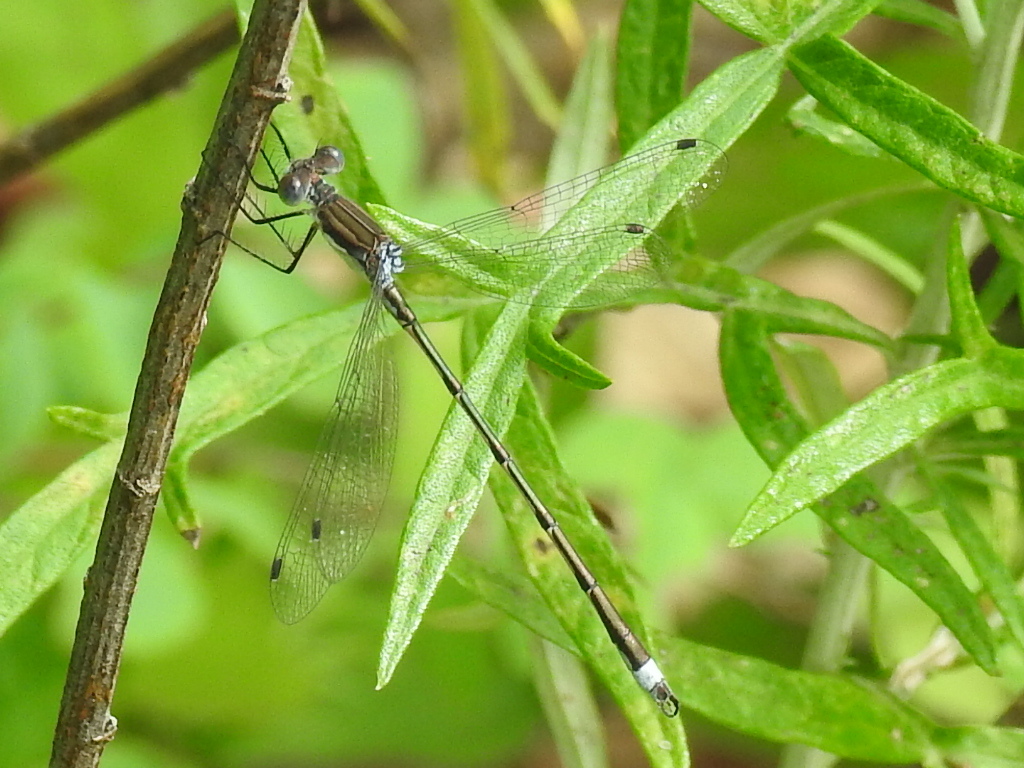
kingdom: Animalia
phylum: Arthropoda
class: Insecta
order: Odonata
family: Lestidae
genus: Lestes
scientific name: Lestes australis
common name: Southern spreadwing
